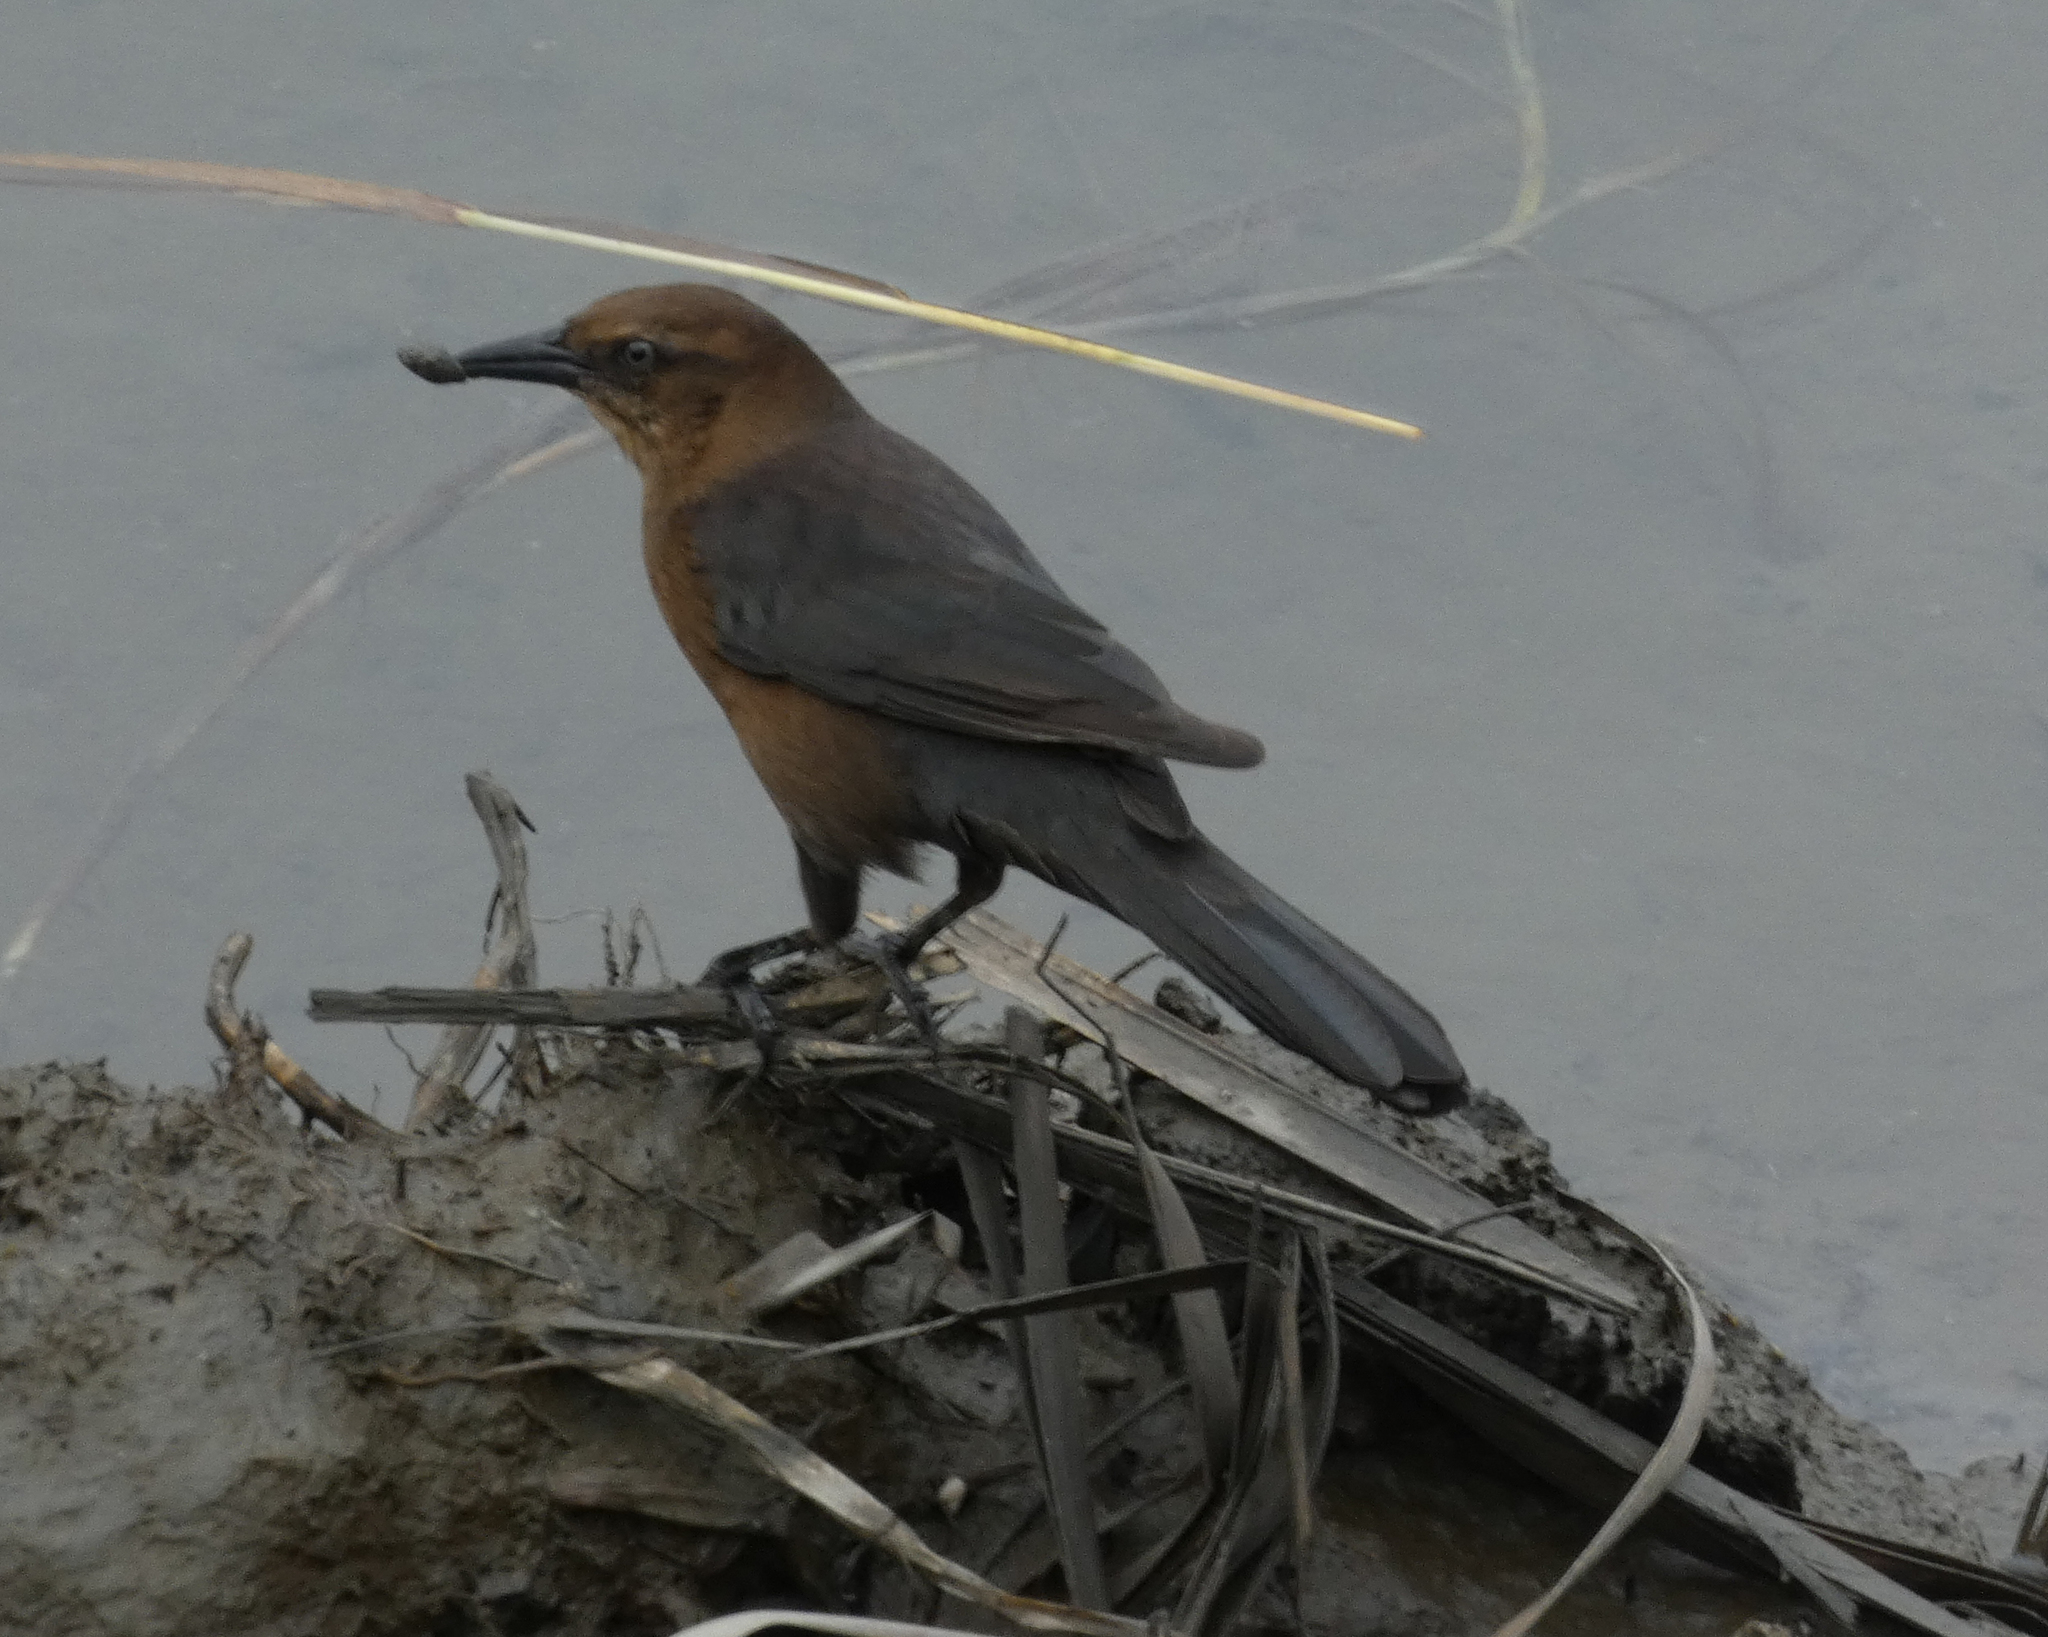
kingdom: Animalia
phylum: Chordata
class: Aves
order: Passeriformes
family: Icteridae
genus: Quiscalus
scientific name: Quiscalus major
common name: Boat-tailed grackle
